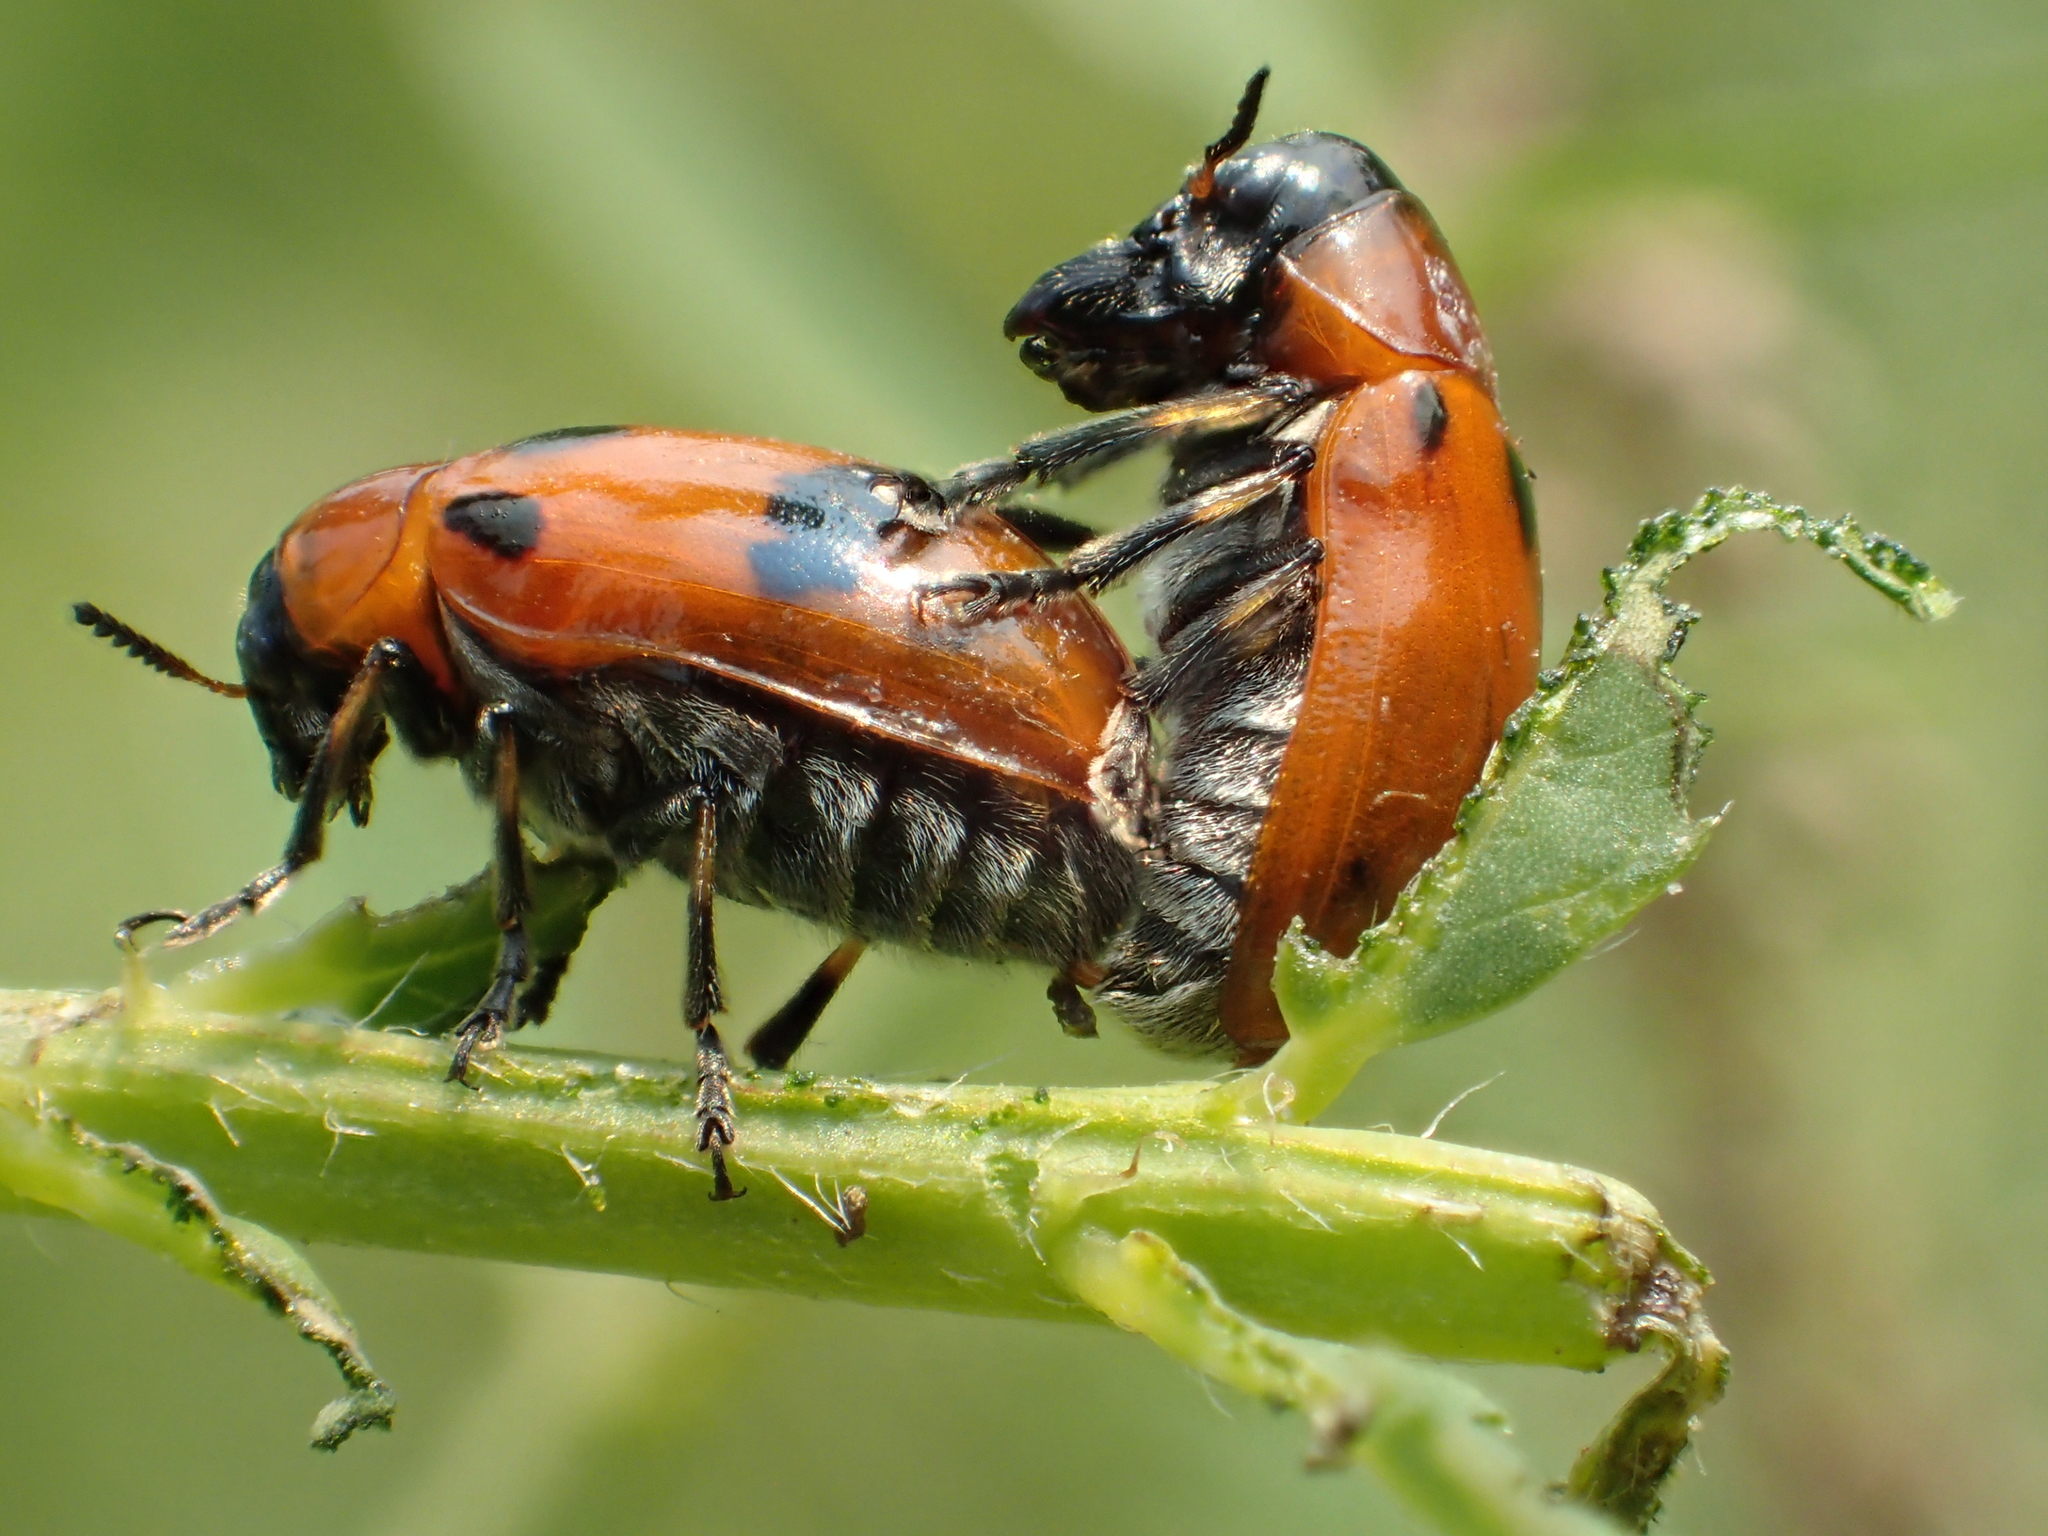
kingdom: Animalia
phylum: Arthropoda
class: Insecta
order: Coleoptera
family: Chrysomelidae
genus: Coptocephala
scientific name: Coptocephala
